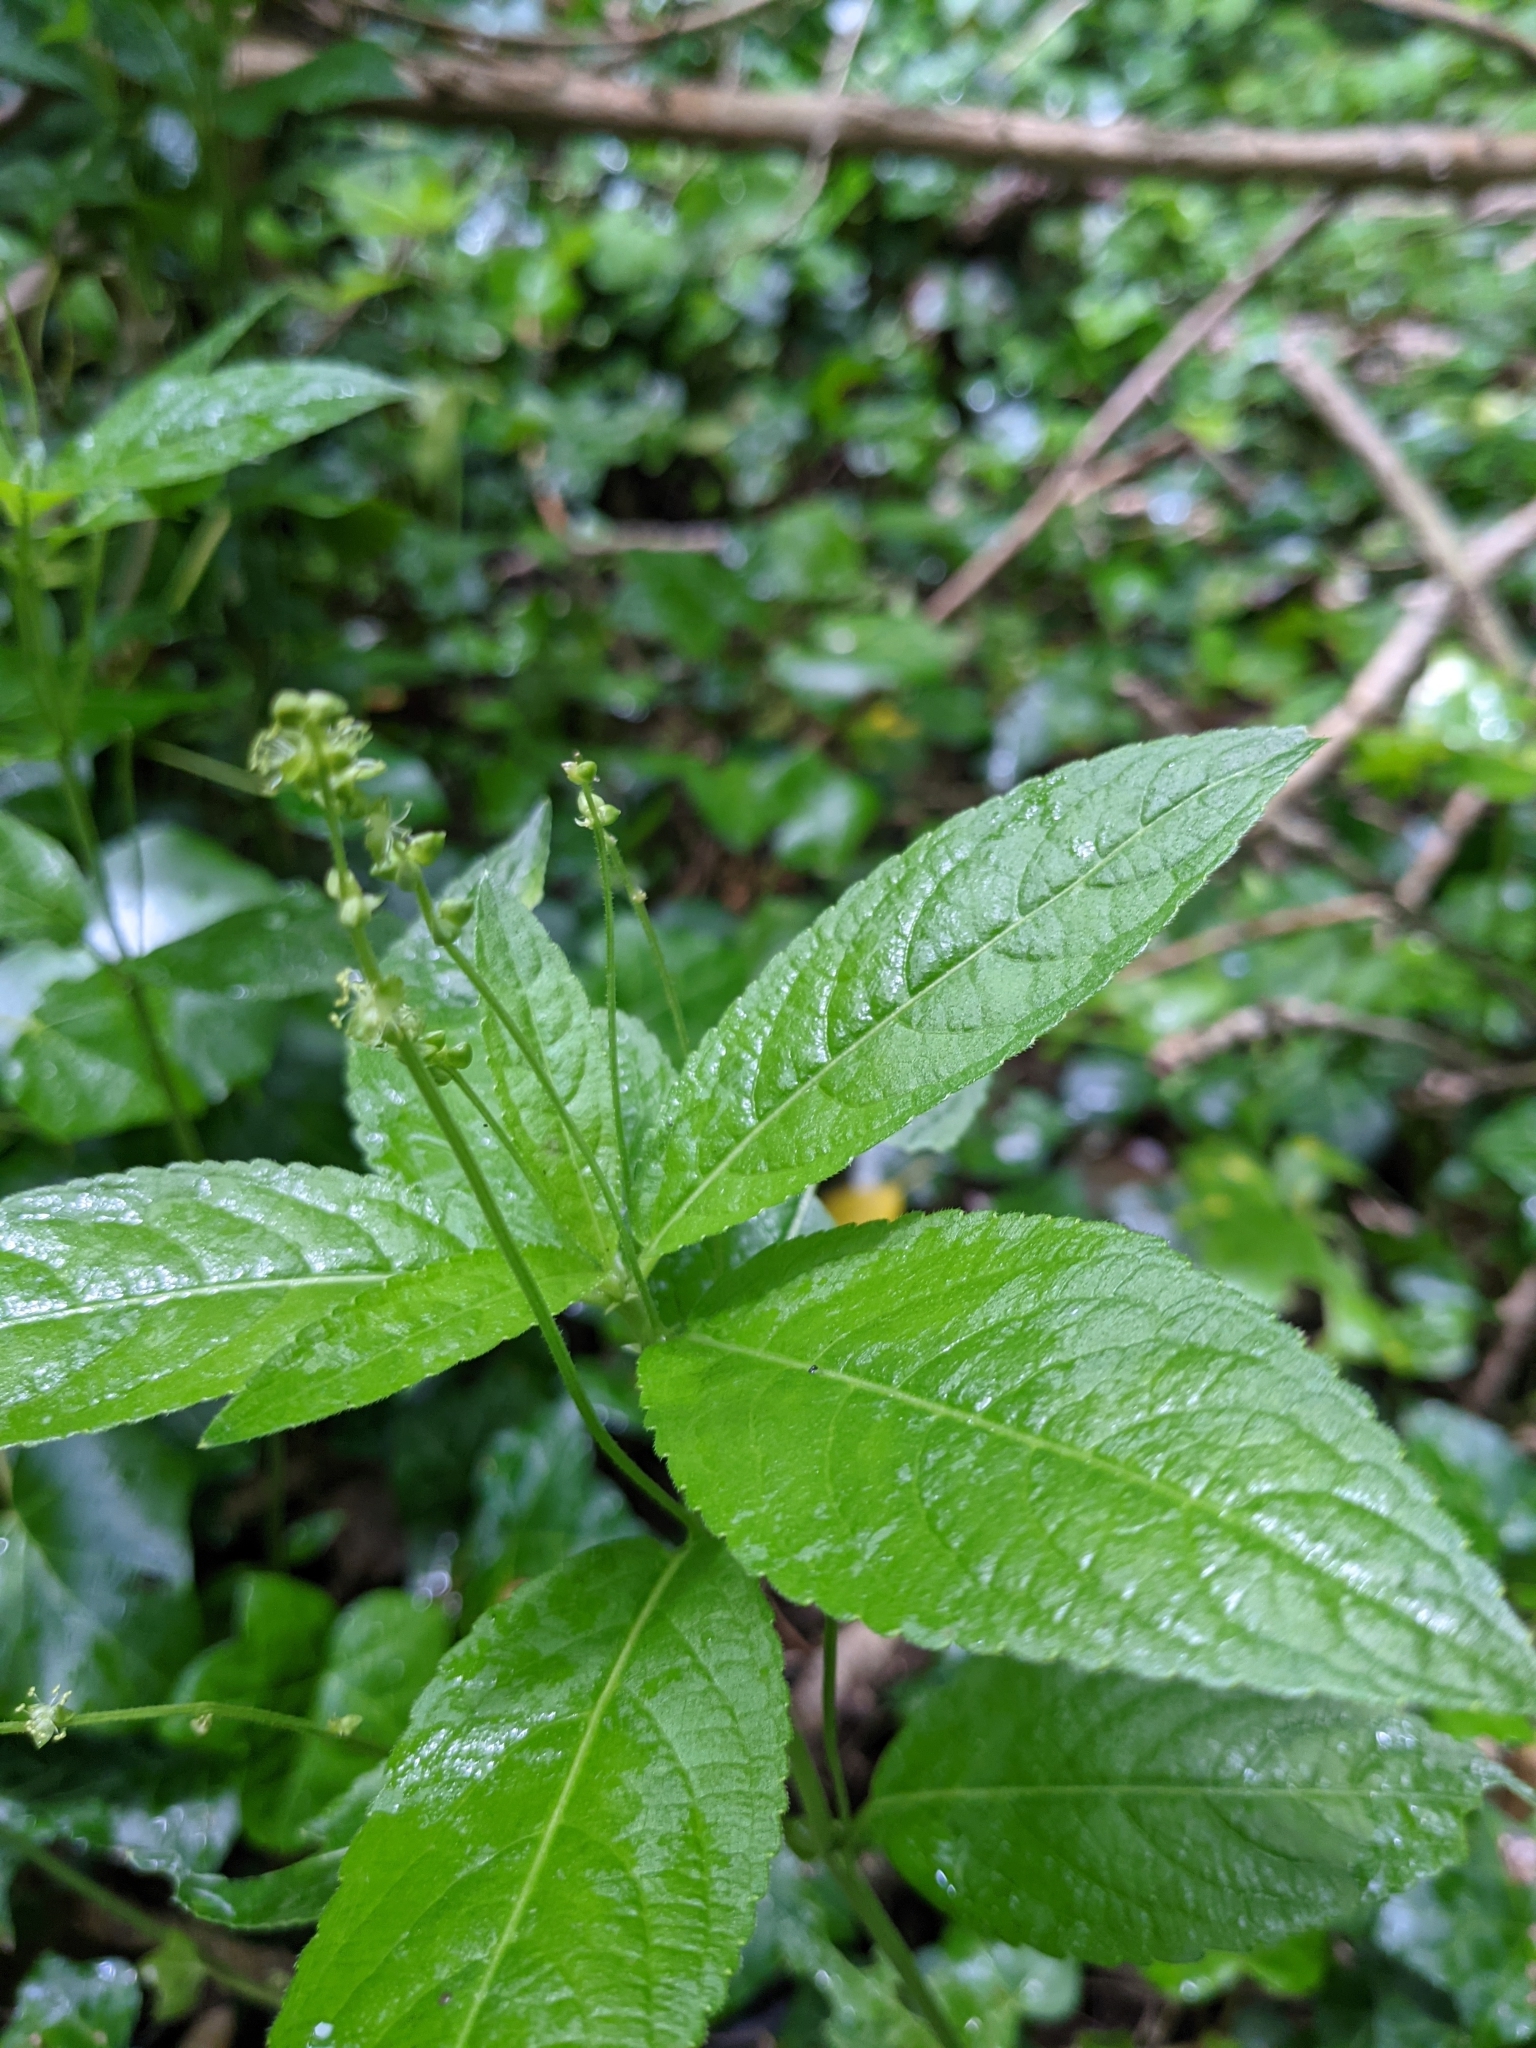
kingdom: Plantae
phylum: Tracheophyta
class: Magnoliopsida
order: Malpighiales
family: Euphorbiaceae
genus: Mercurialis
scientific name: Mercurialis perennis
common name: Dog mercury
